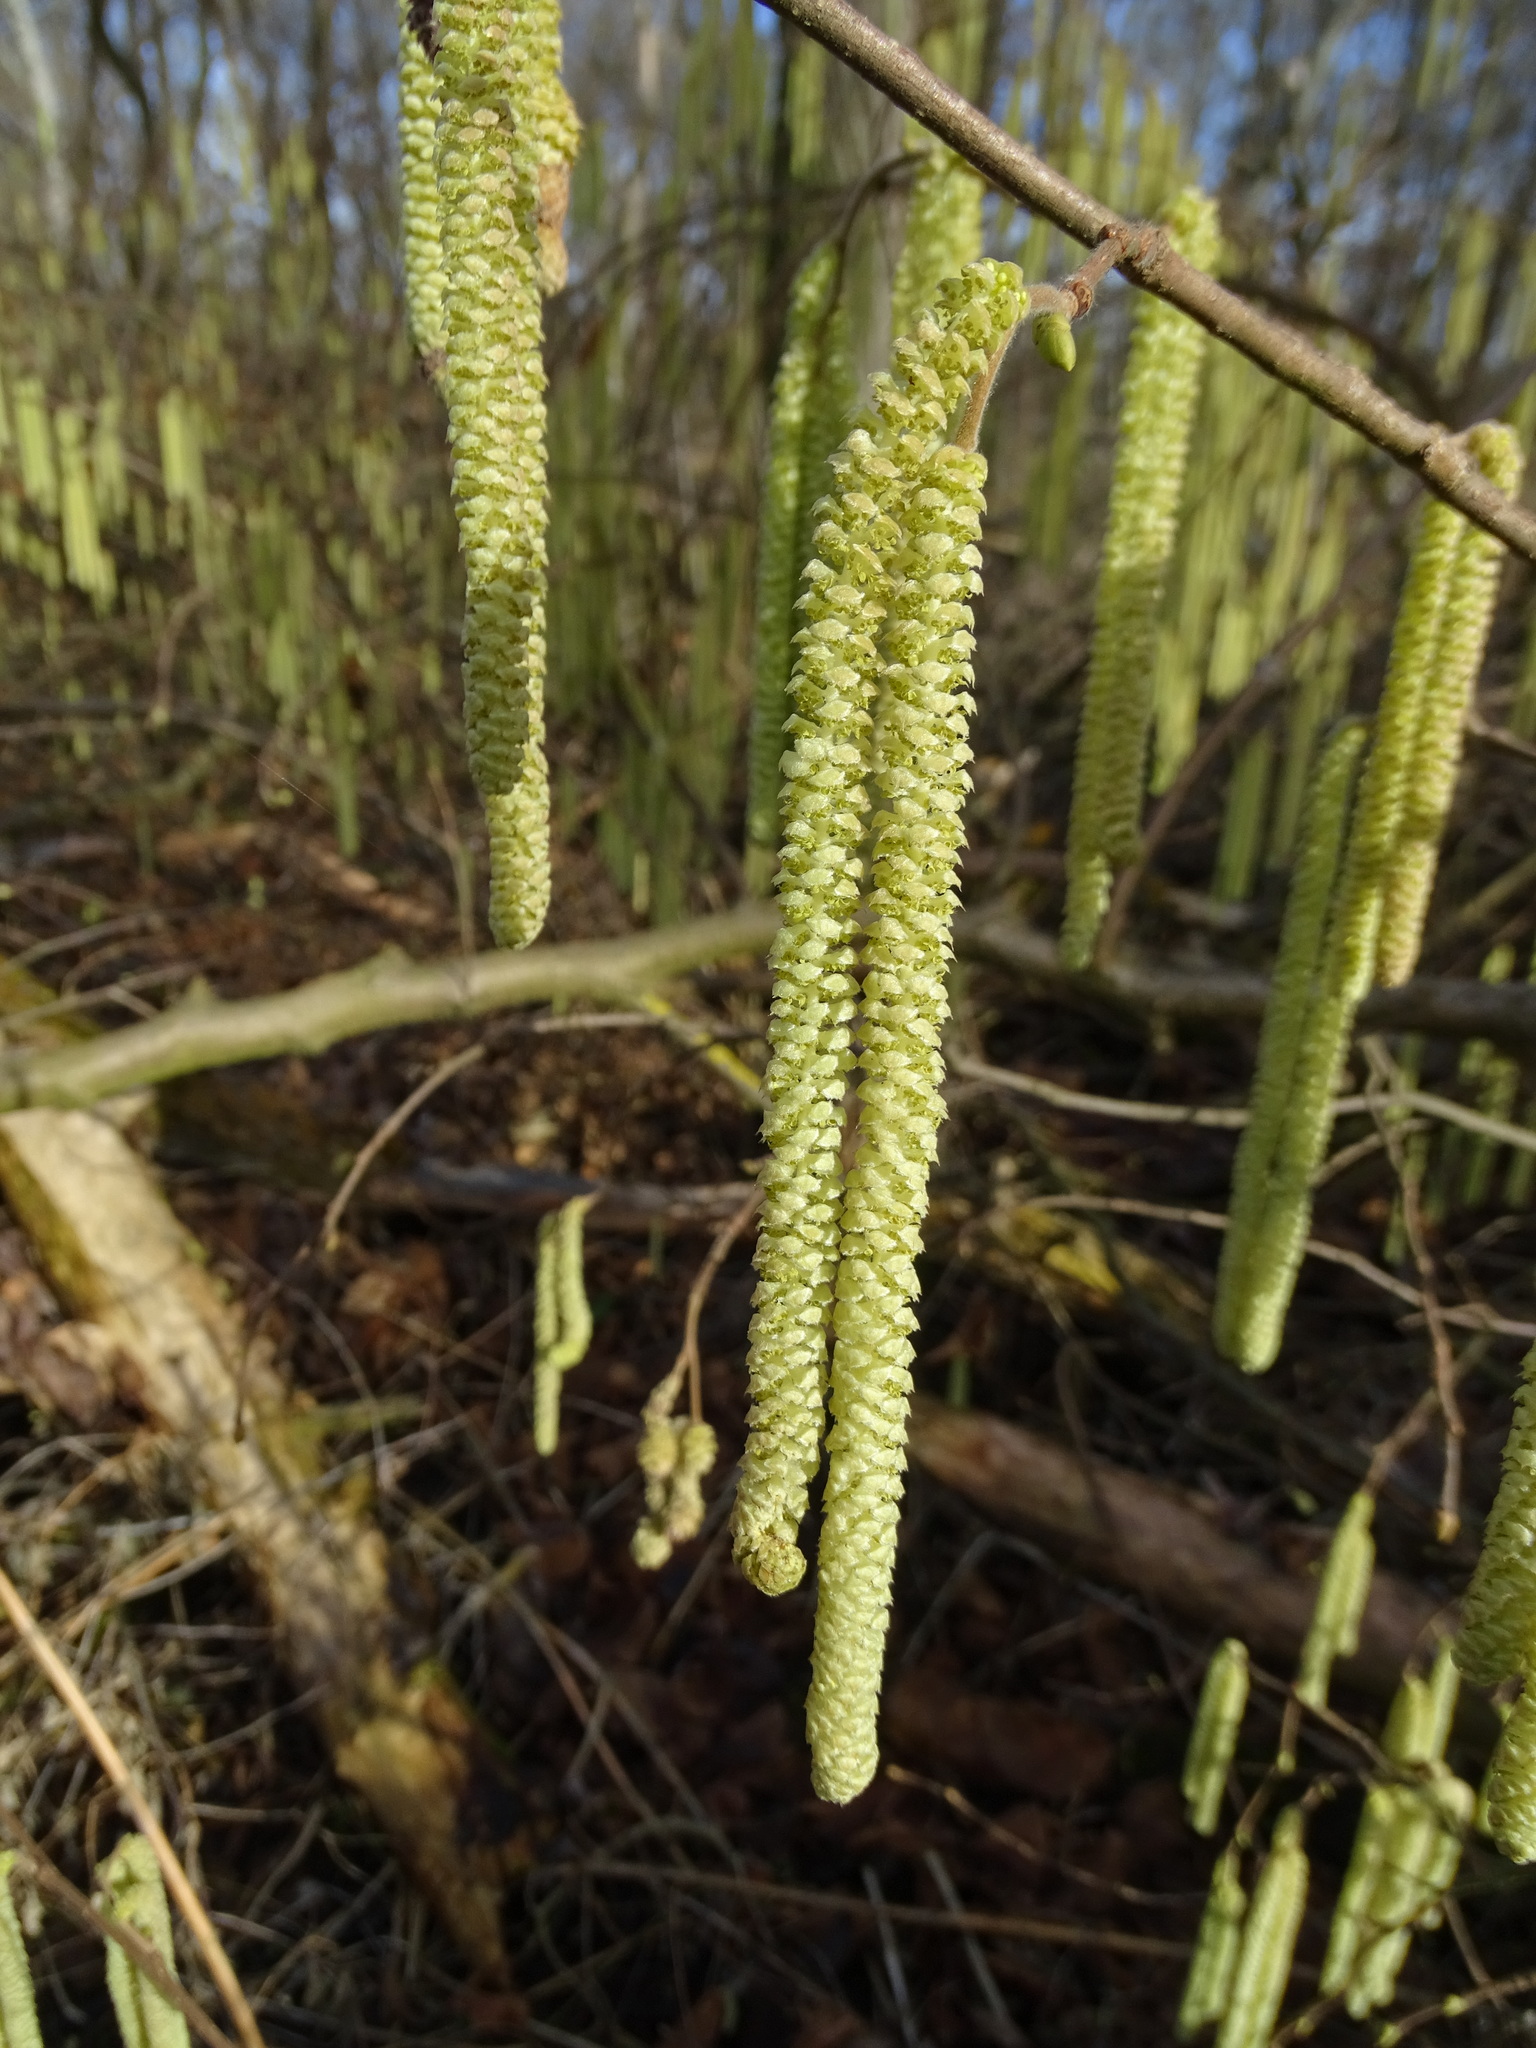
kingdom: Plantae
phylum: Tracheophyta
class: Magnoliopsida
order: Fagales
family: Betulaceae
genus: Corylus
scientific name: Corylus avellana
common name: European hazel
